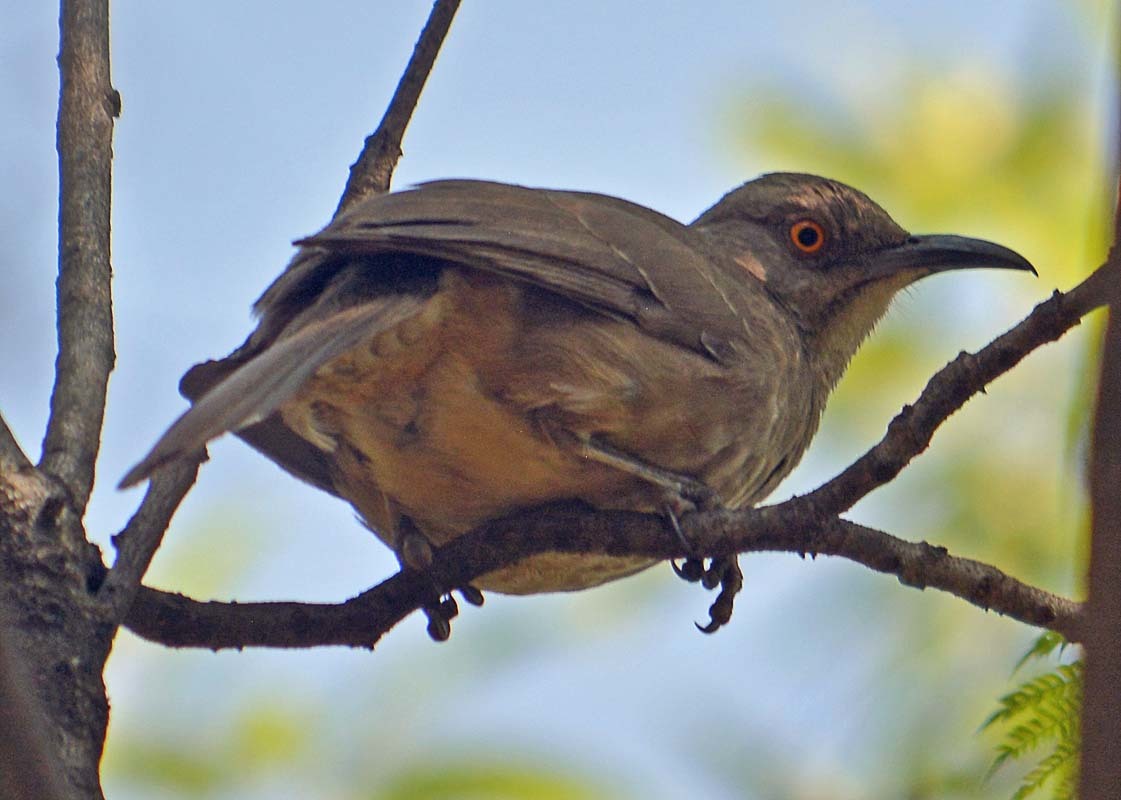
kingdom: Animalia
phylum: Chordata
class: Aves
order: Passeriformes
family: Mimidae
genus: Toxostoma
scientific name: Toxostoma curvirostre
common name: Curve-billed thrasher
